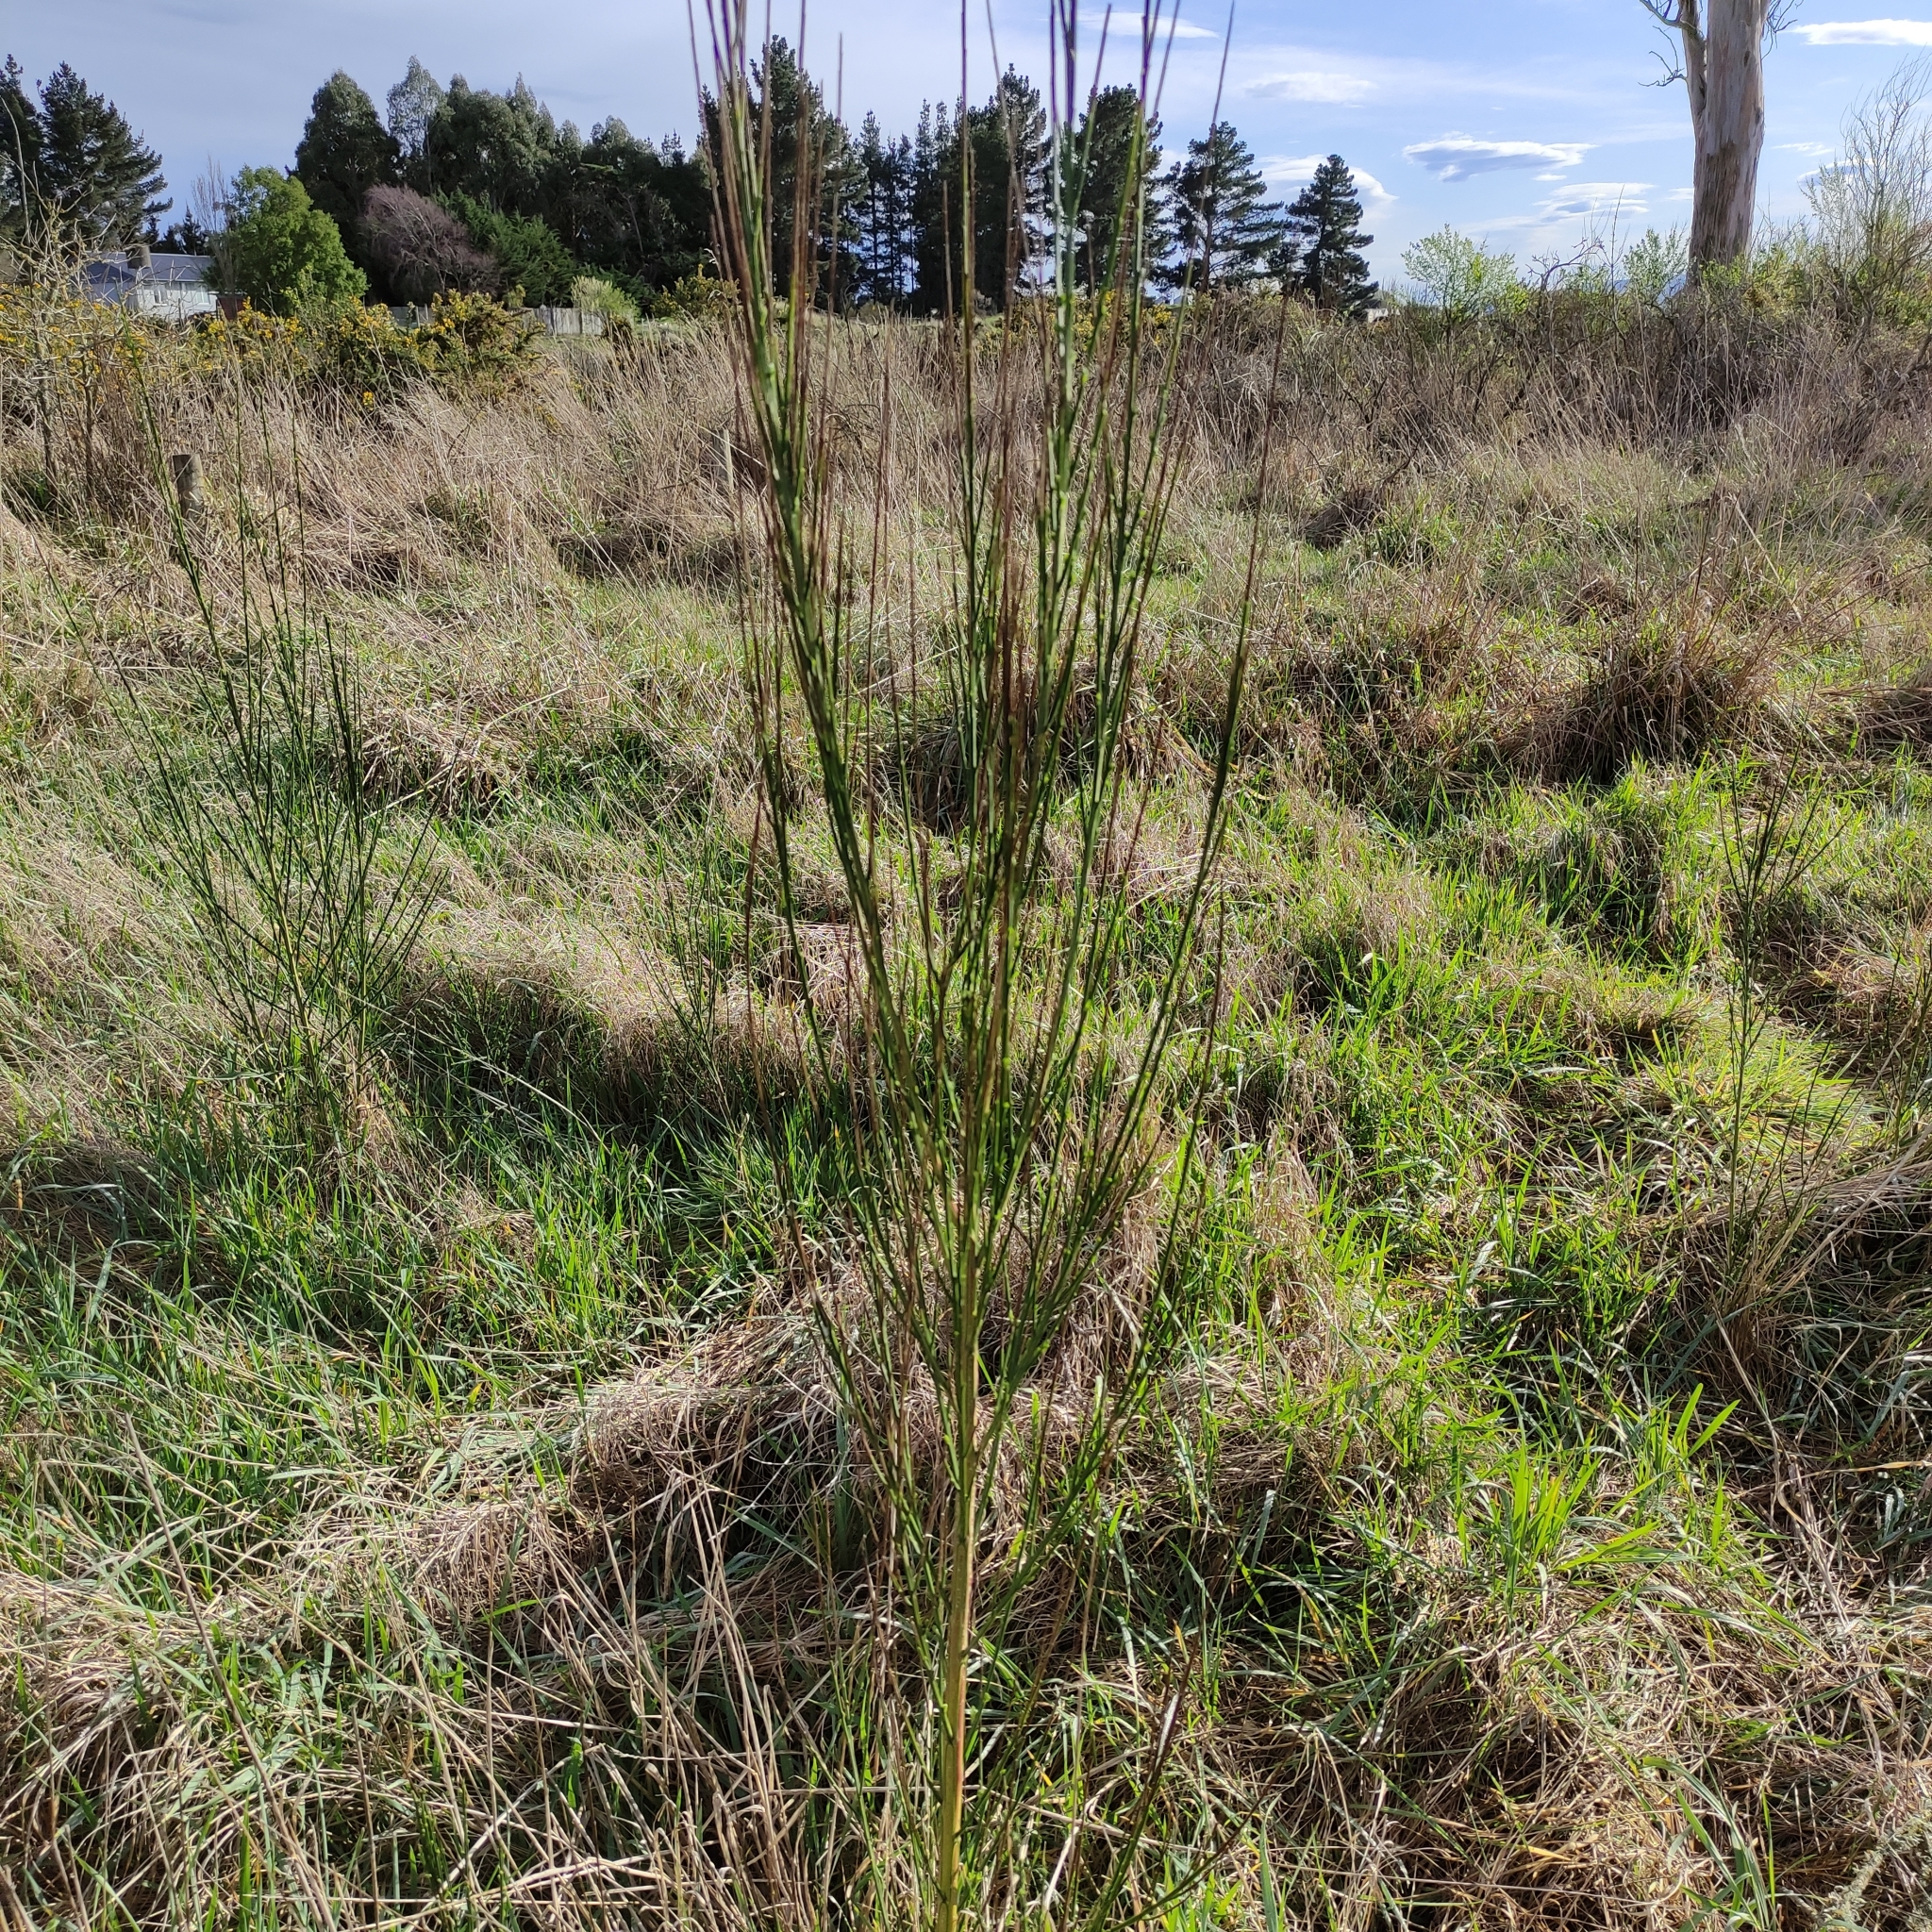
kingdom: Plantae
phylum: Tracheophyta
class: Magnoliopsida
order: Fabales
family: Fabaceae
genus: Cytisus
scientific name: Cytisus scoparius
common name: Scotch broom
